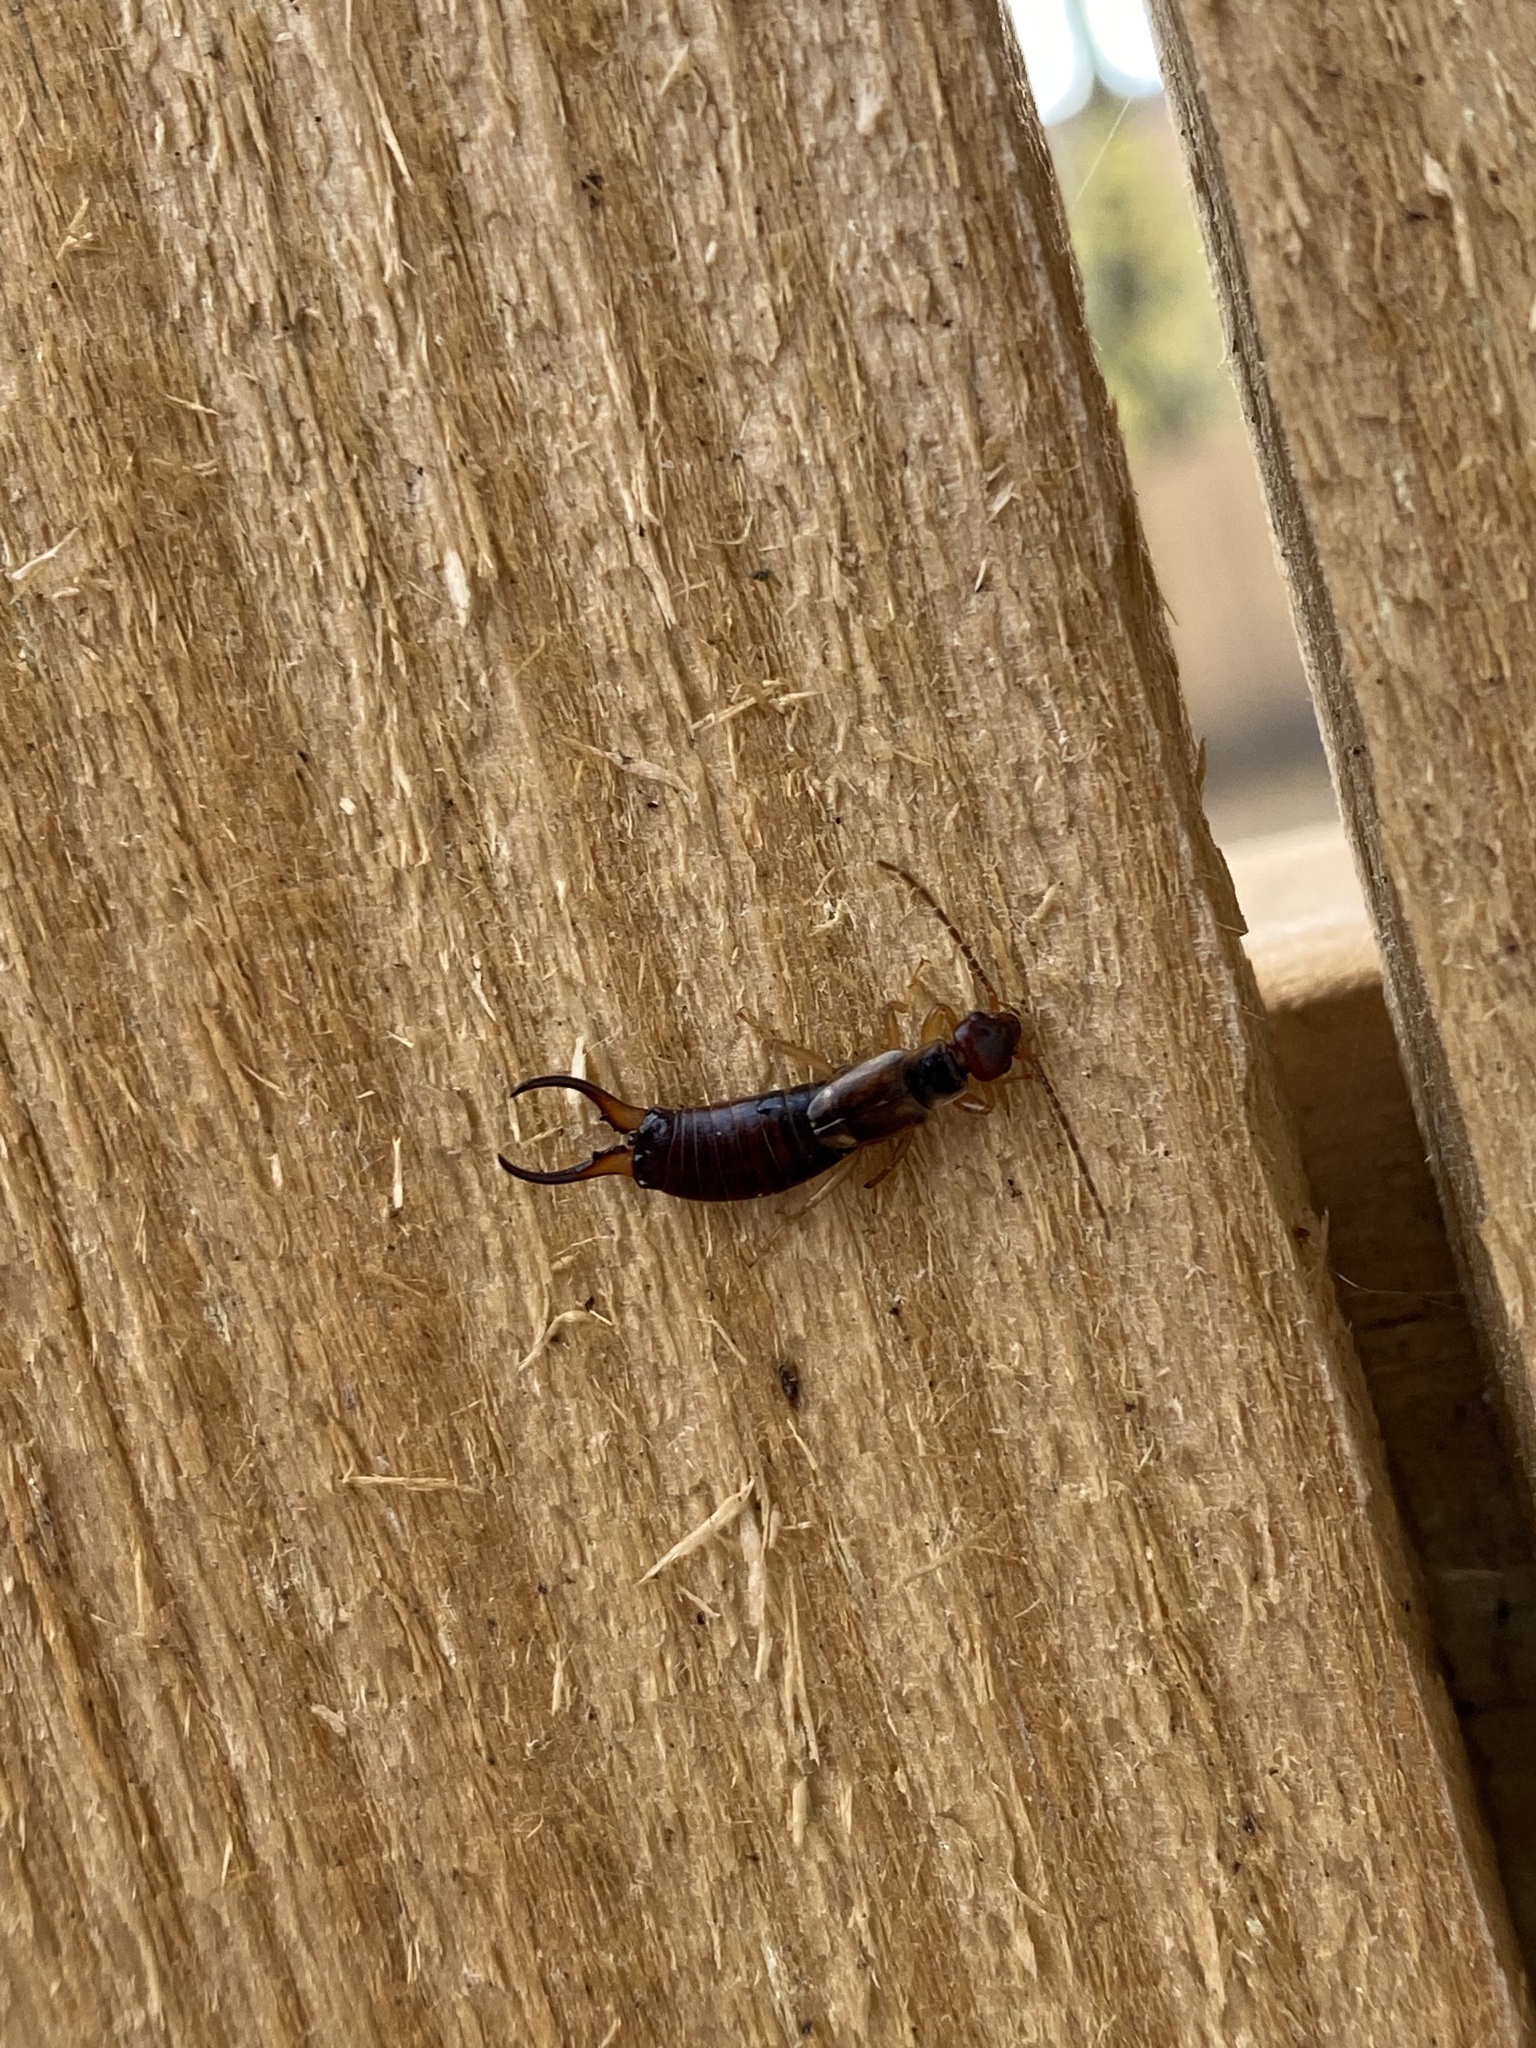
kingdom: Animalia
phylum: Arthropoda
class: Insecta
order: Dermaptera
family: Forficulidae
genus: Forficula
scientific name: Forficula
